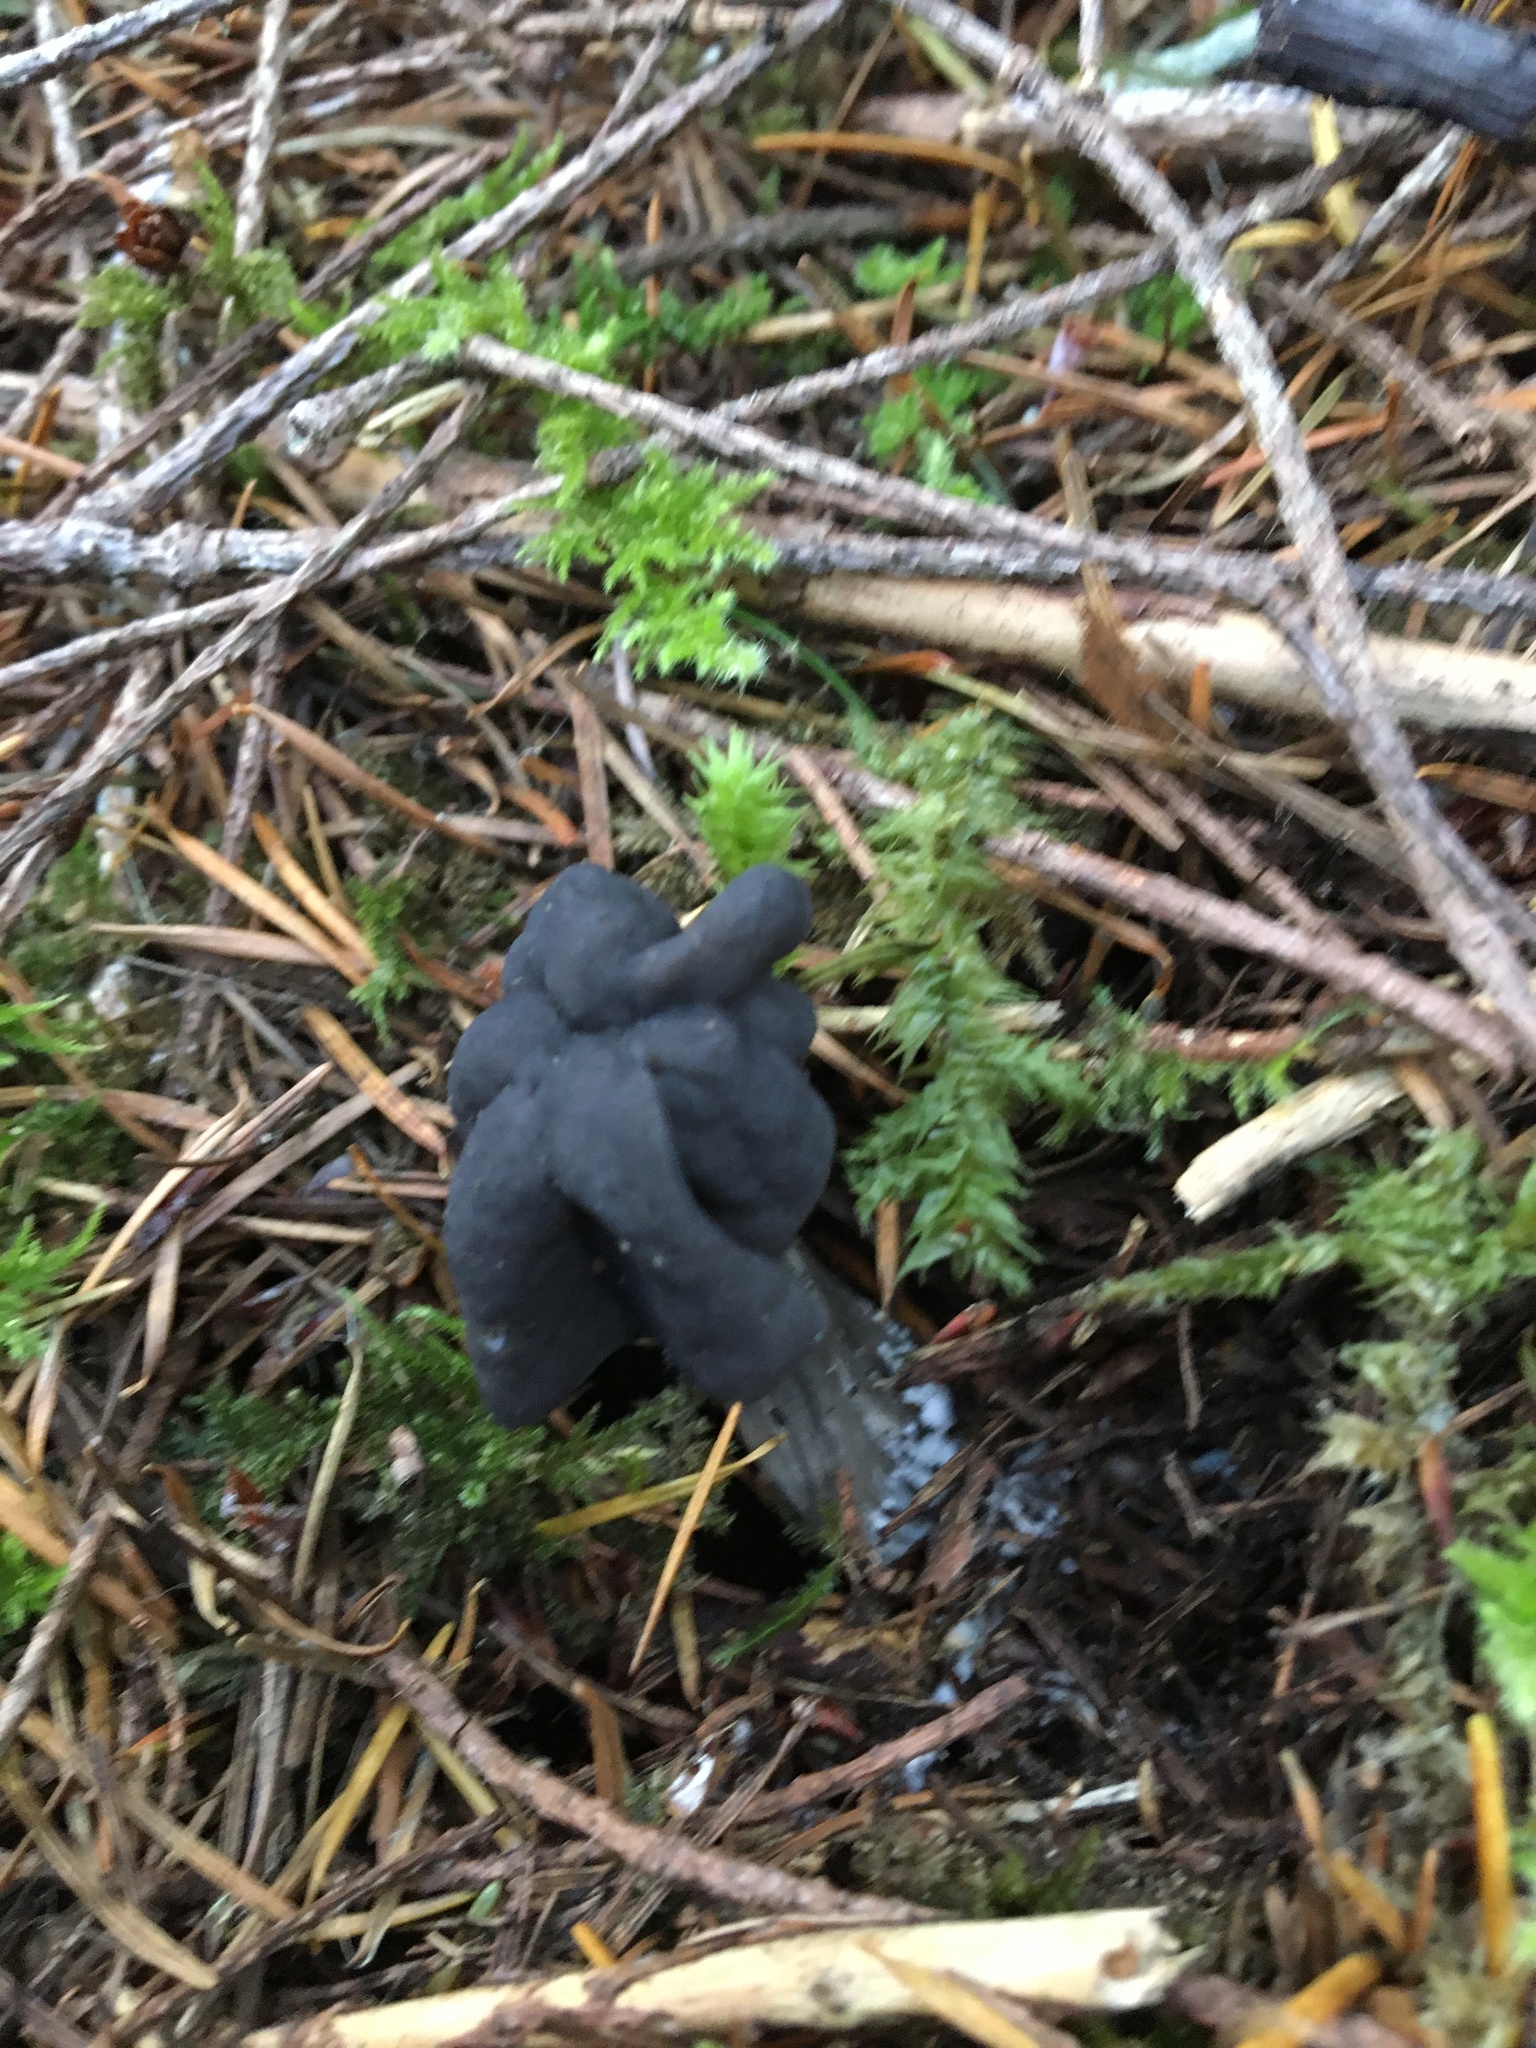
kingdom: Fungi
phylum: Ascomycota
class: Pezizomycetes
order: Pezizales
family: Helvellaceae
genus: Helvella
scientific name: Helvella vespertina
